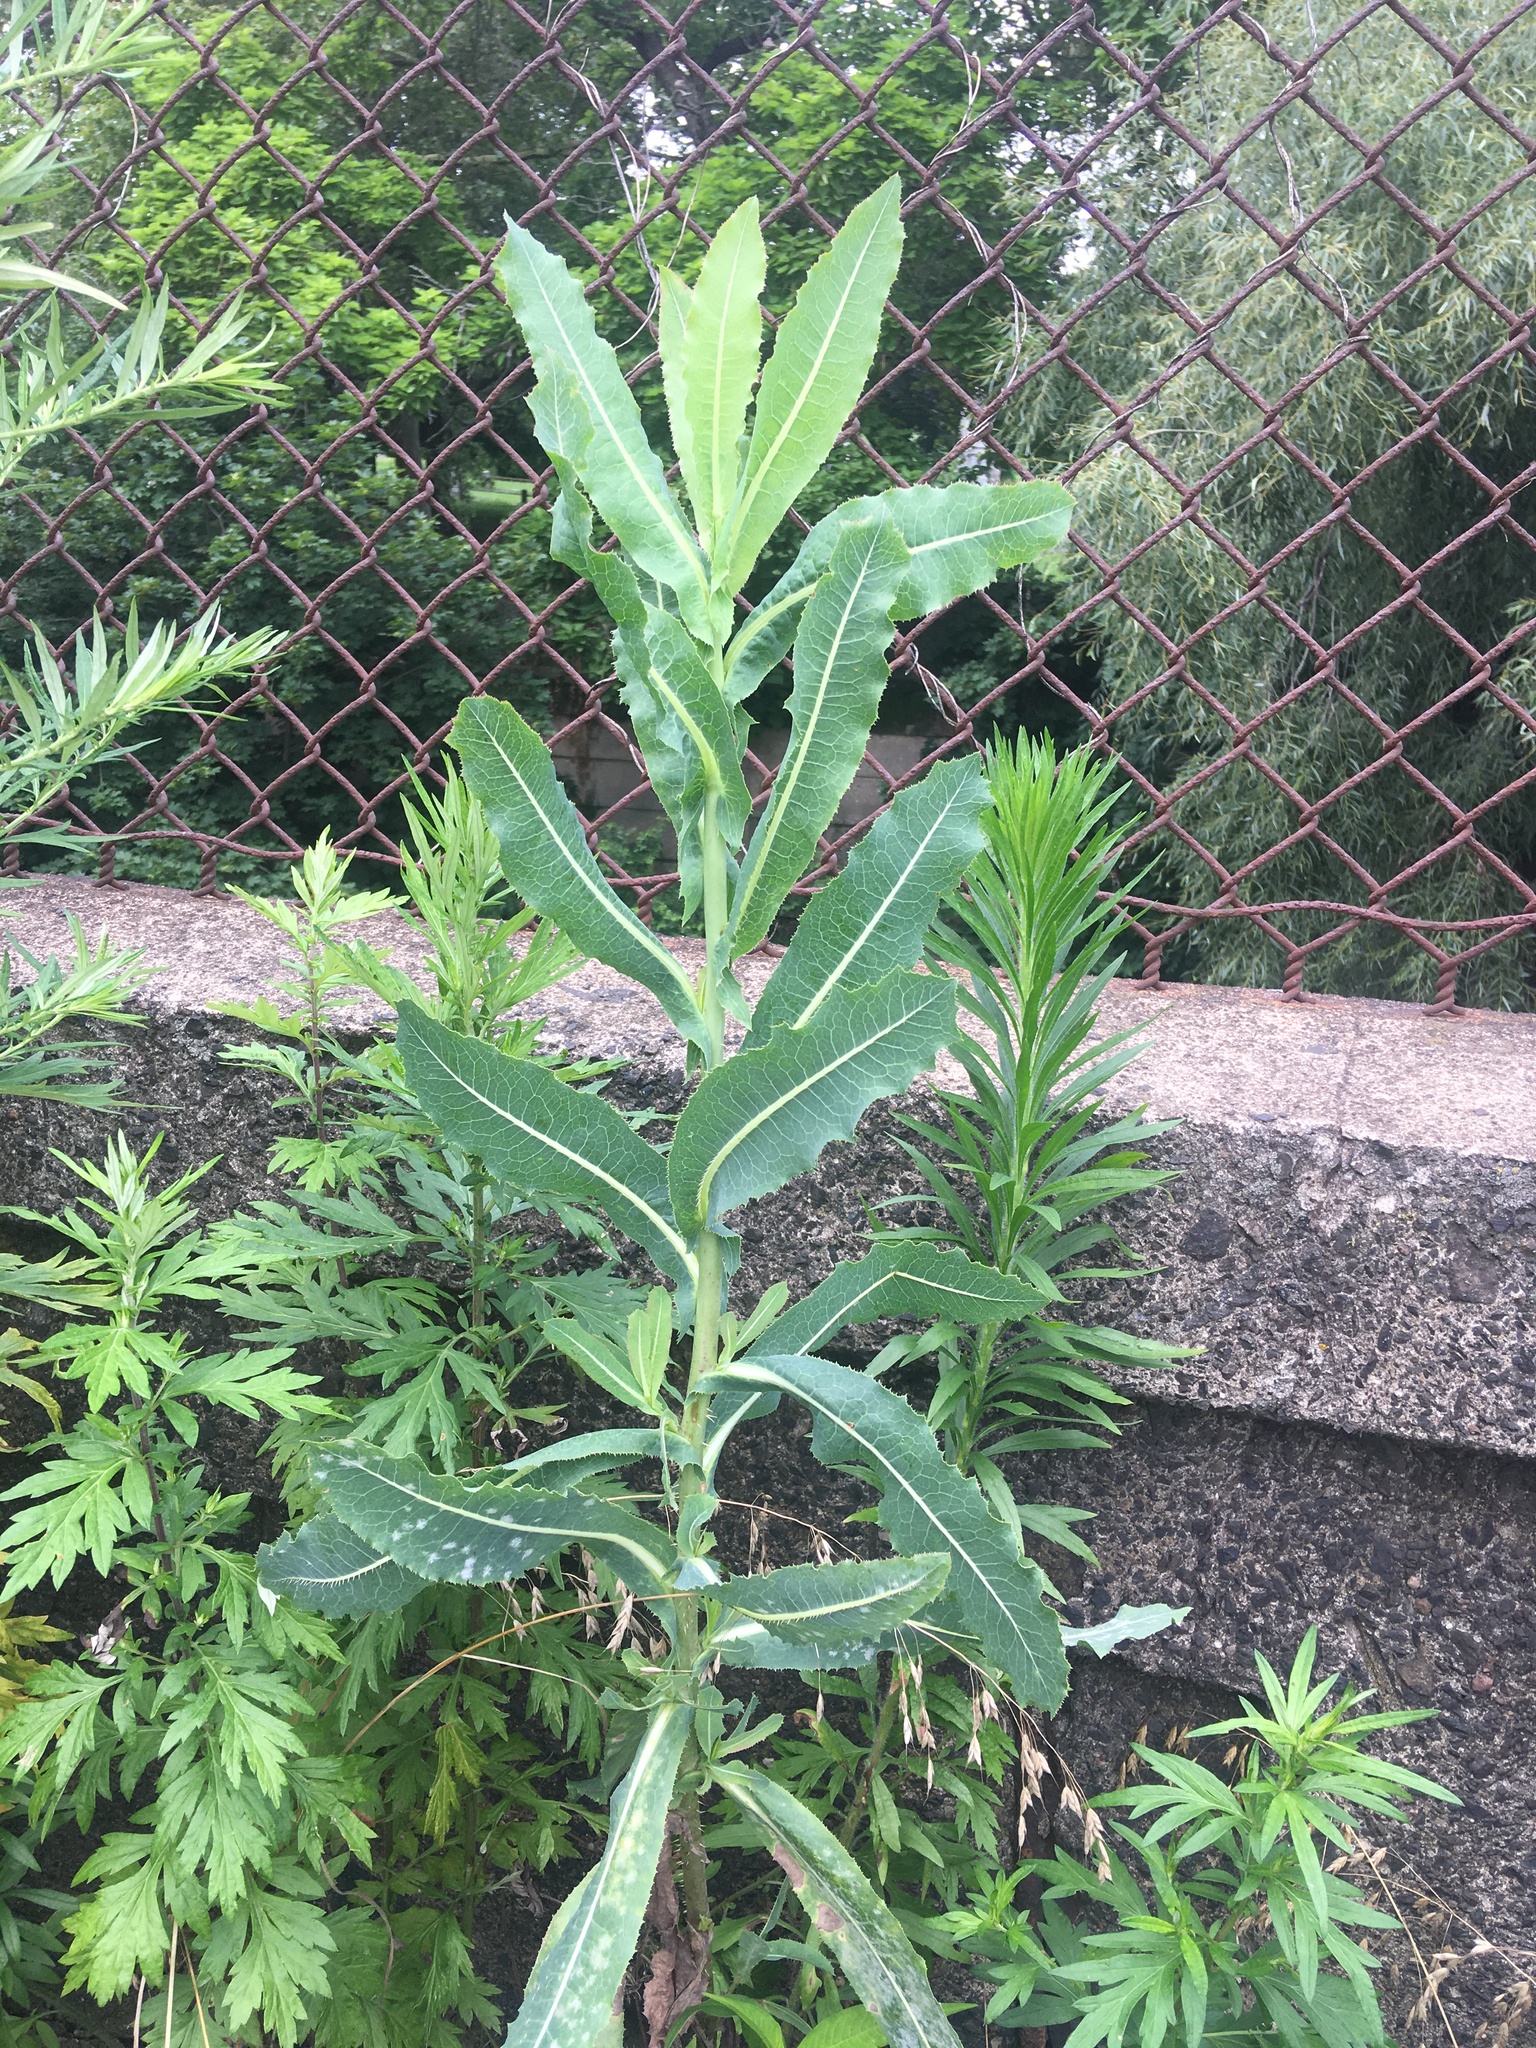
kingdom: Plantae
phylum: Tracheophyta
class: Magnoliopsida
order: Asterales
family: Asteraceae
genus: Lactuca
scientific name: Lactuca serriola
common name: Prickly lettuce
